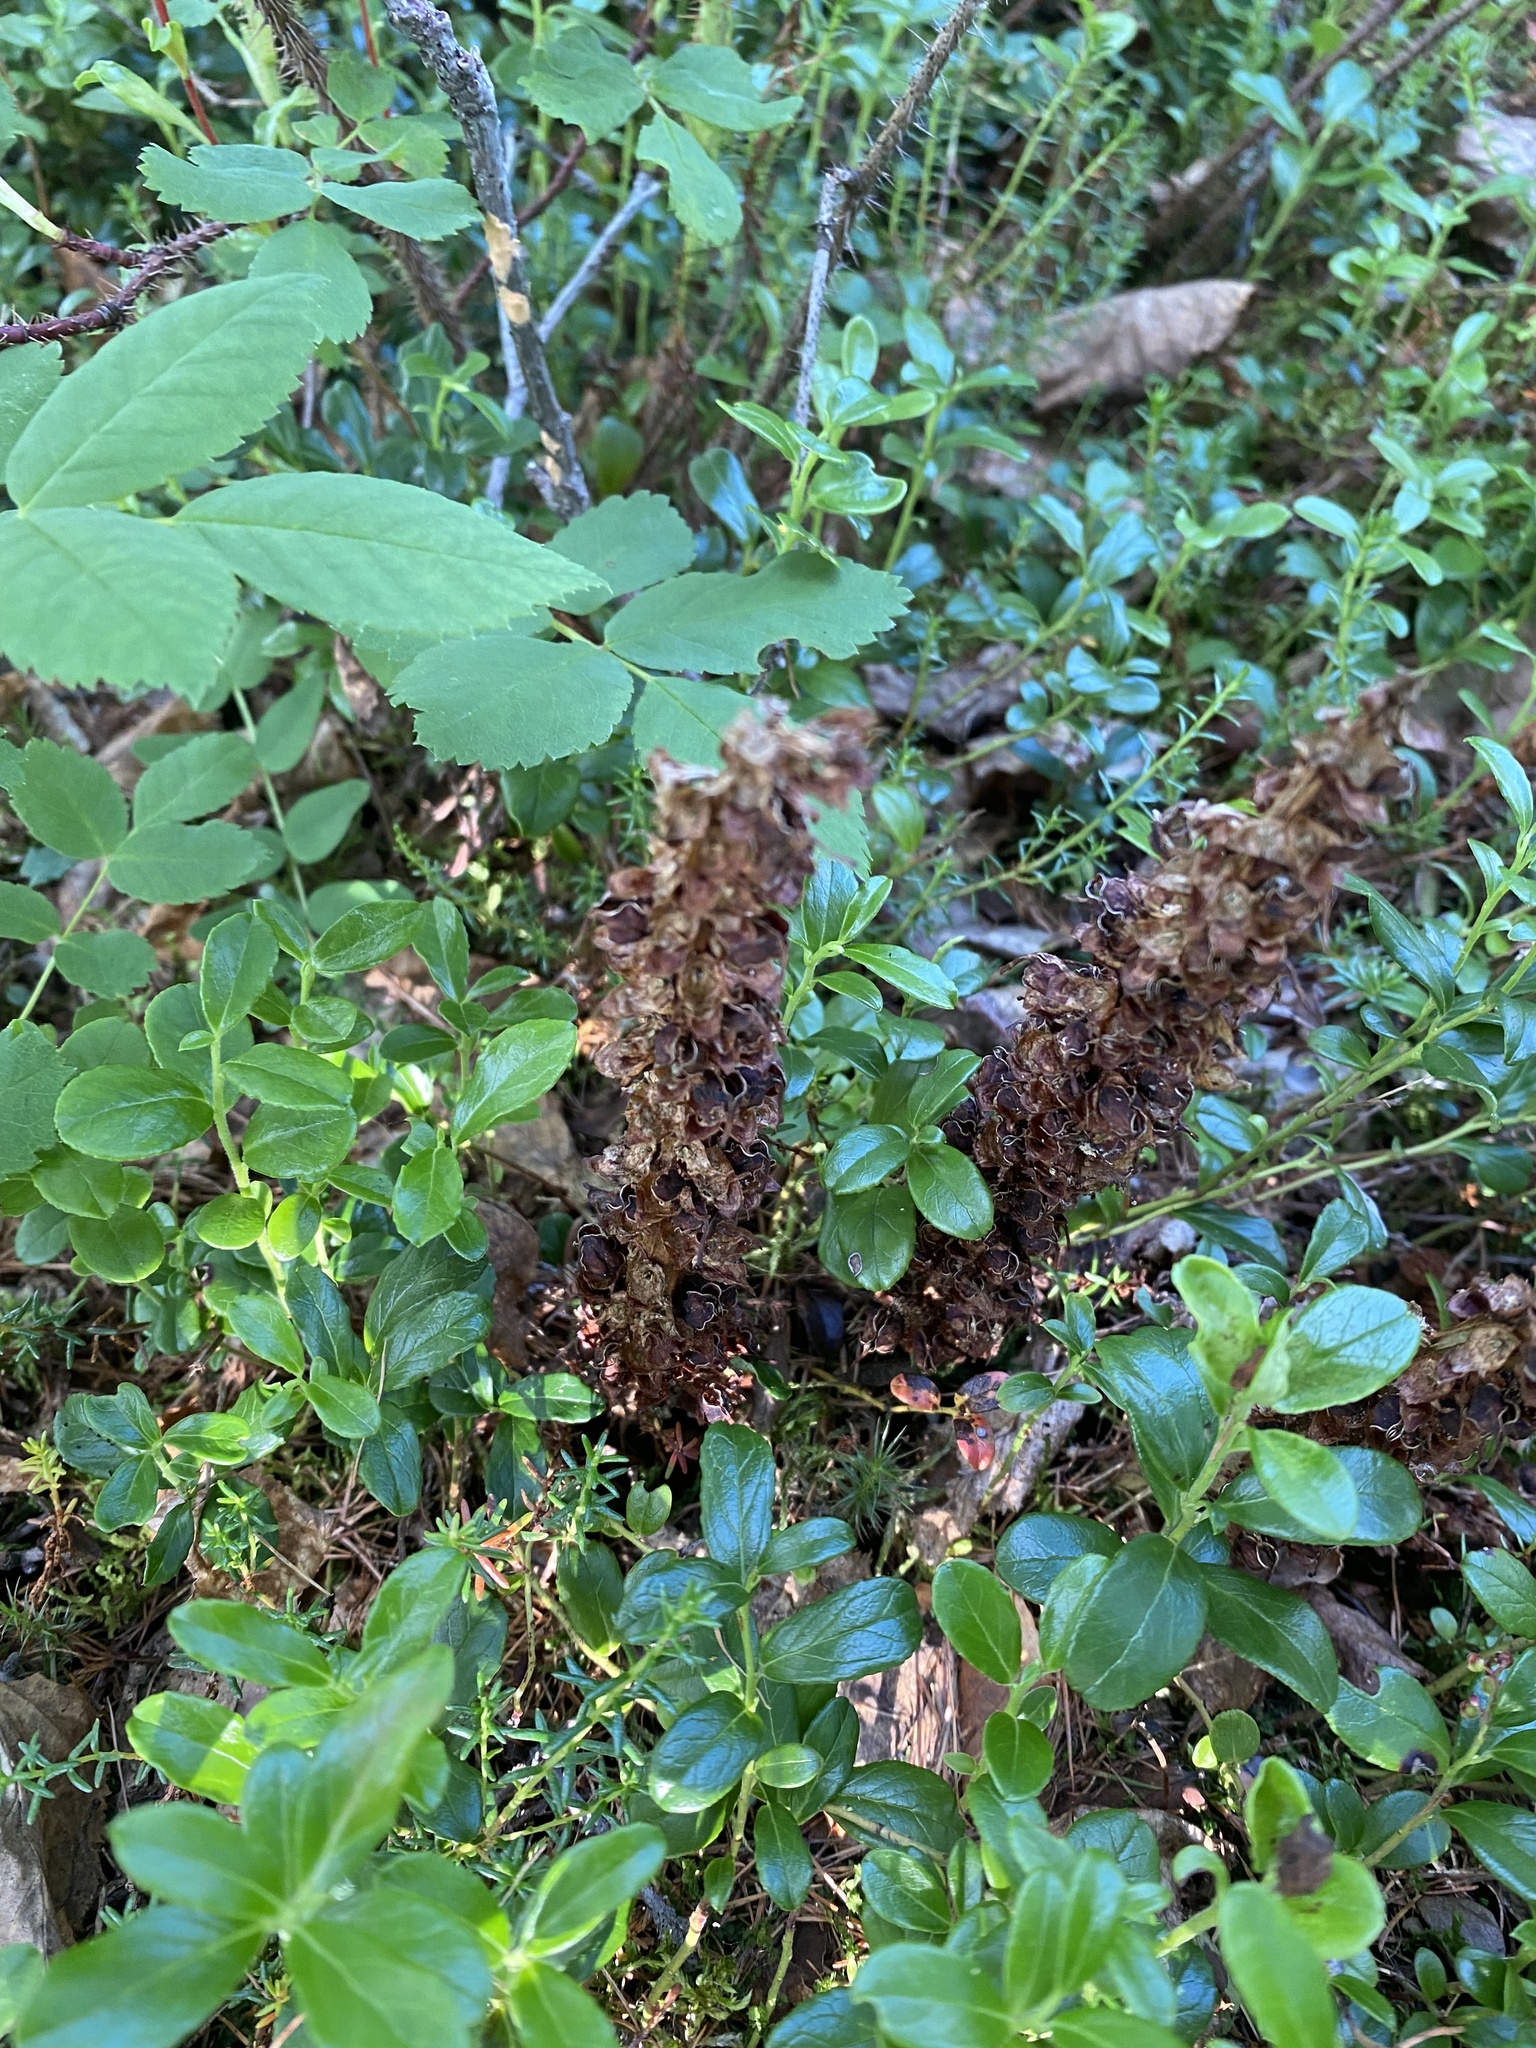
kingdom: Plantae
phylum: Tracheophyta
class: Magnoliopsida
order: Ericales
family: Ericaceae
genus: Vaccinium
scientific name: Vaccinium vitis-idaea
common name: Cowberry
